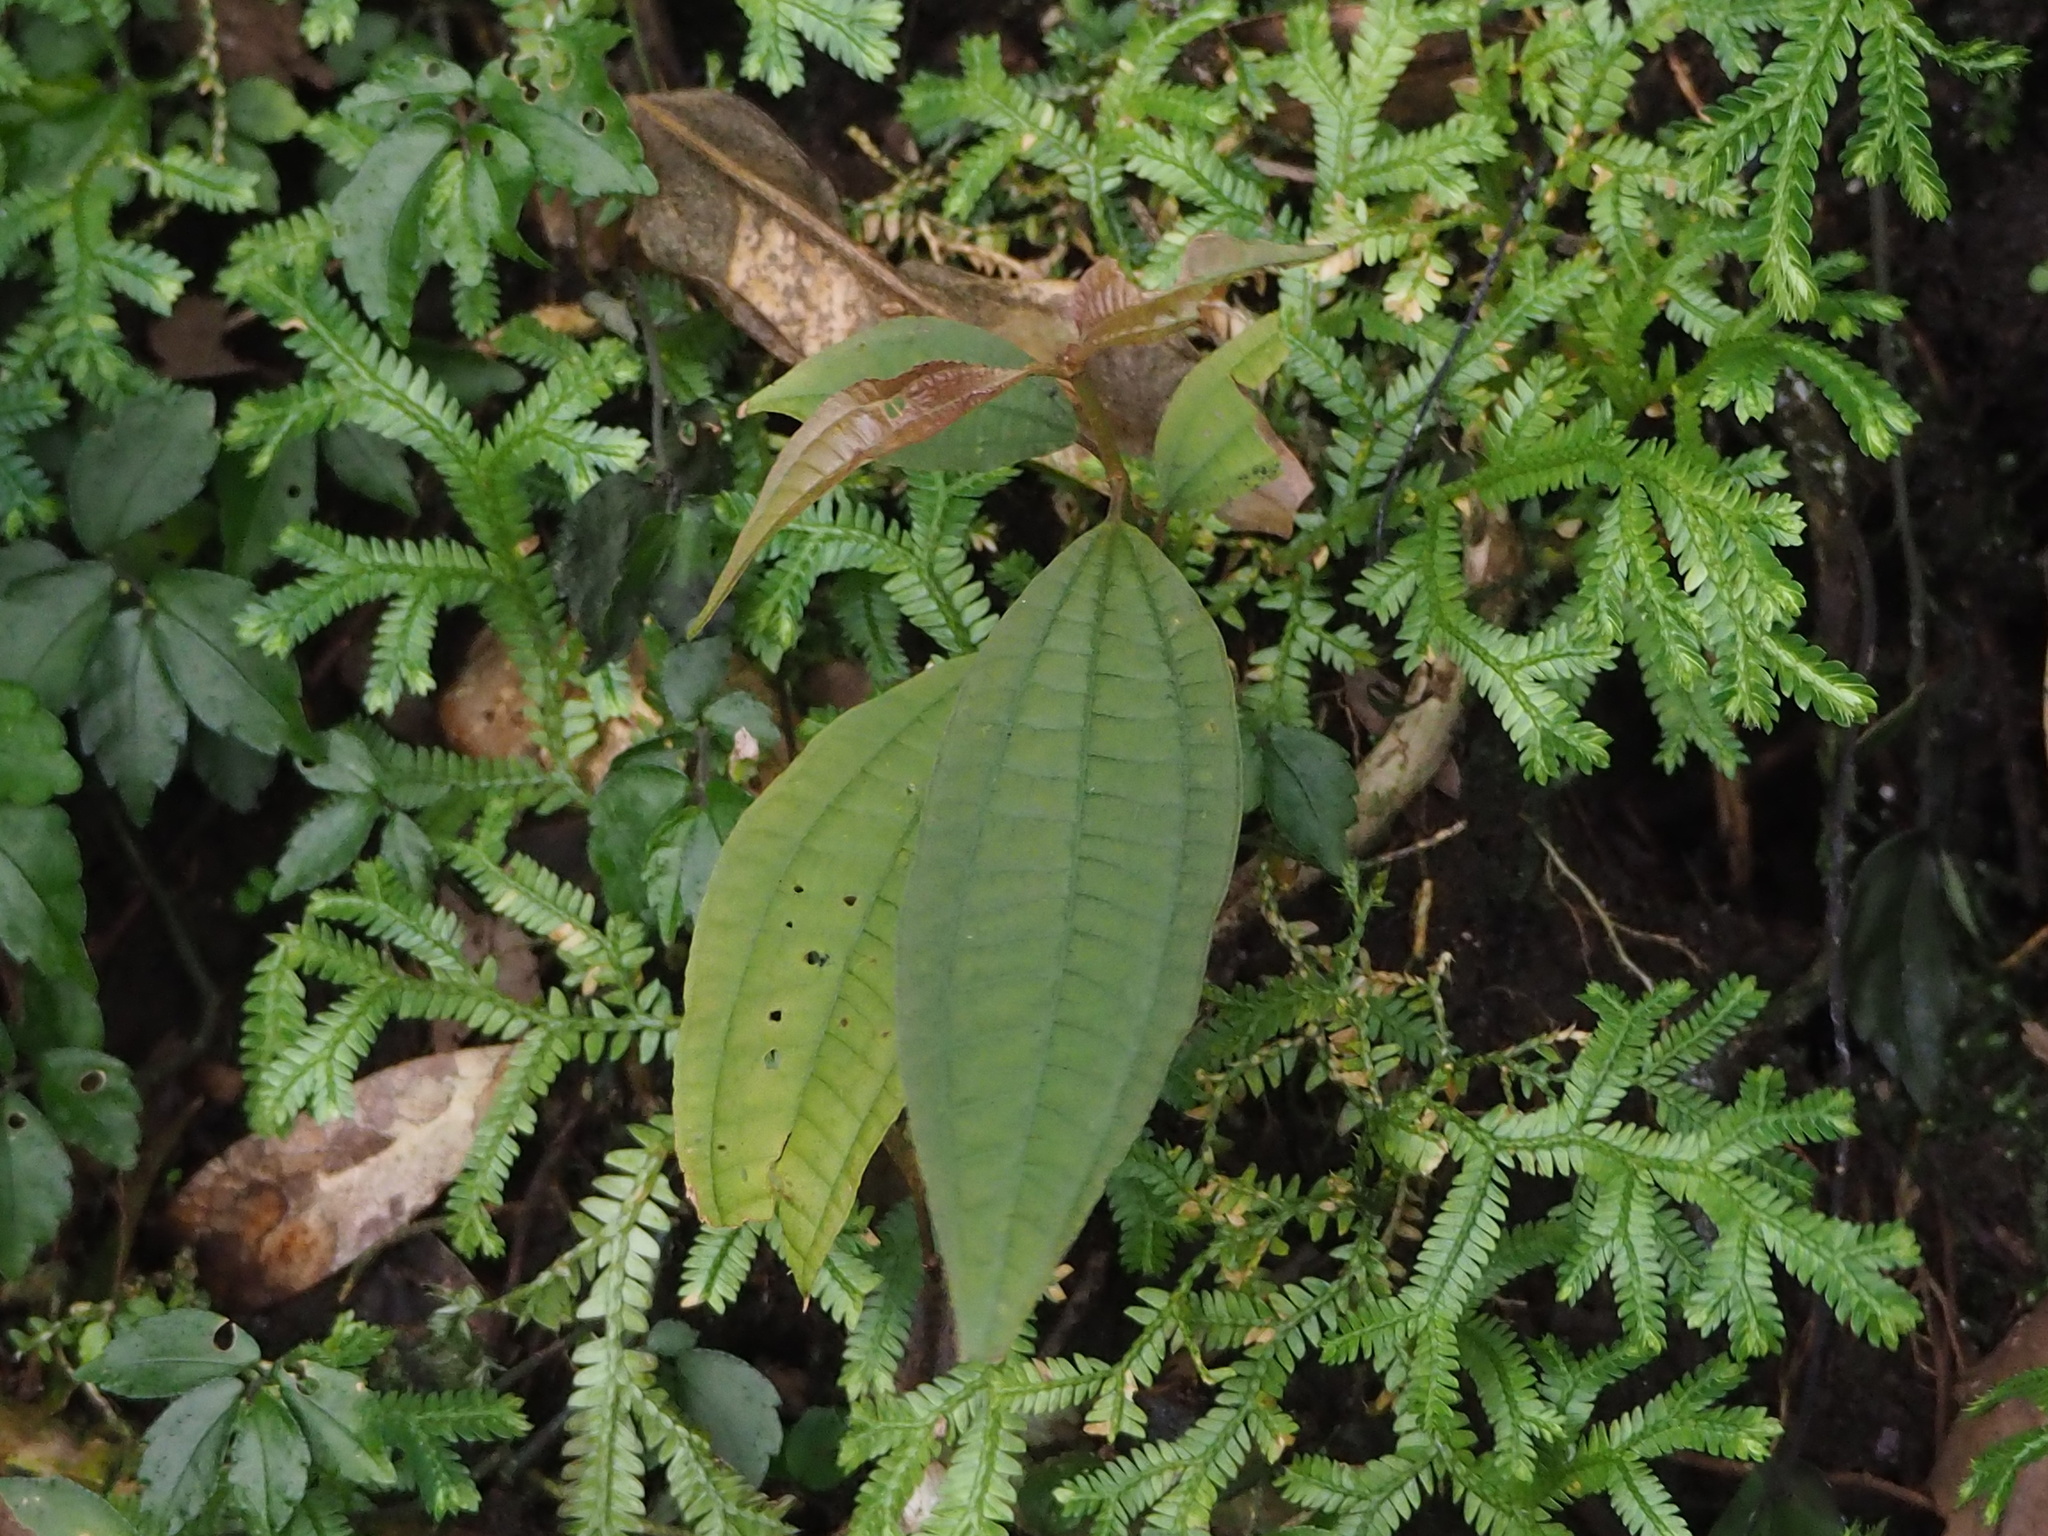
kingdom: Plantae
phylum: Tracheophyta
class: Magnoliopsida
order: Myrtales
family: Melastomataceae
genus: Blastus
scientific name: Blastus cochinchinensis
